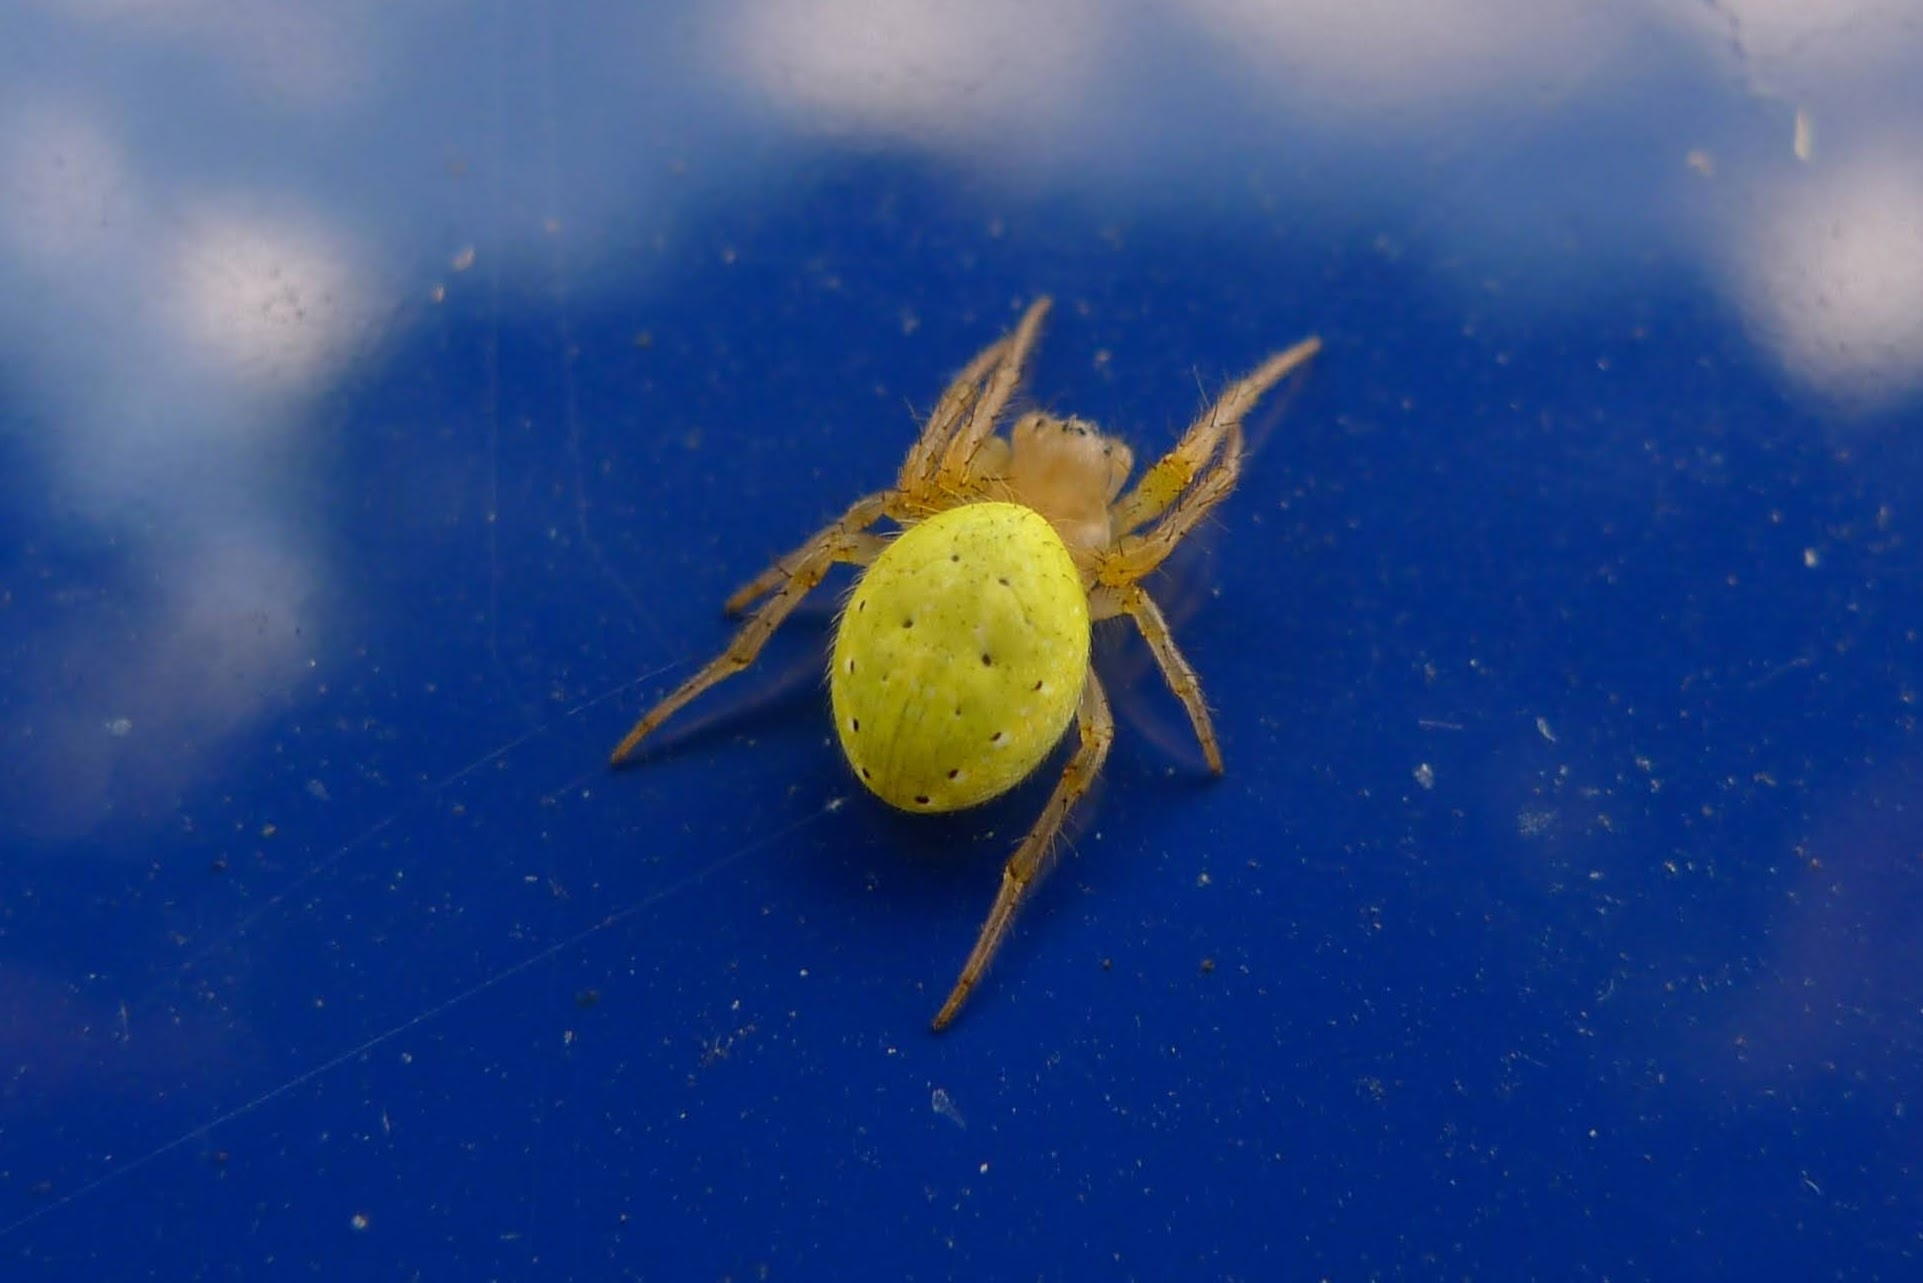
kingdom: Animalia
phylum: Arthropoda
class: Arachnida
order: Araneae
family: Araneidae
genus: Araniella
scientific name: Araniella
